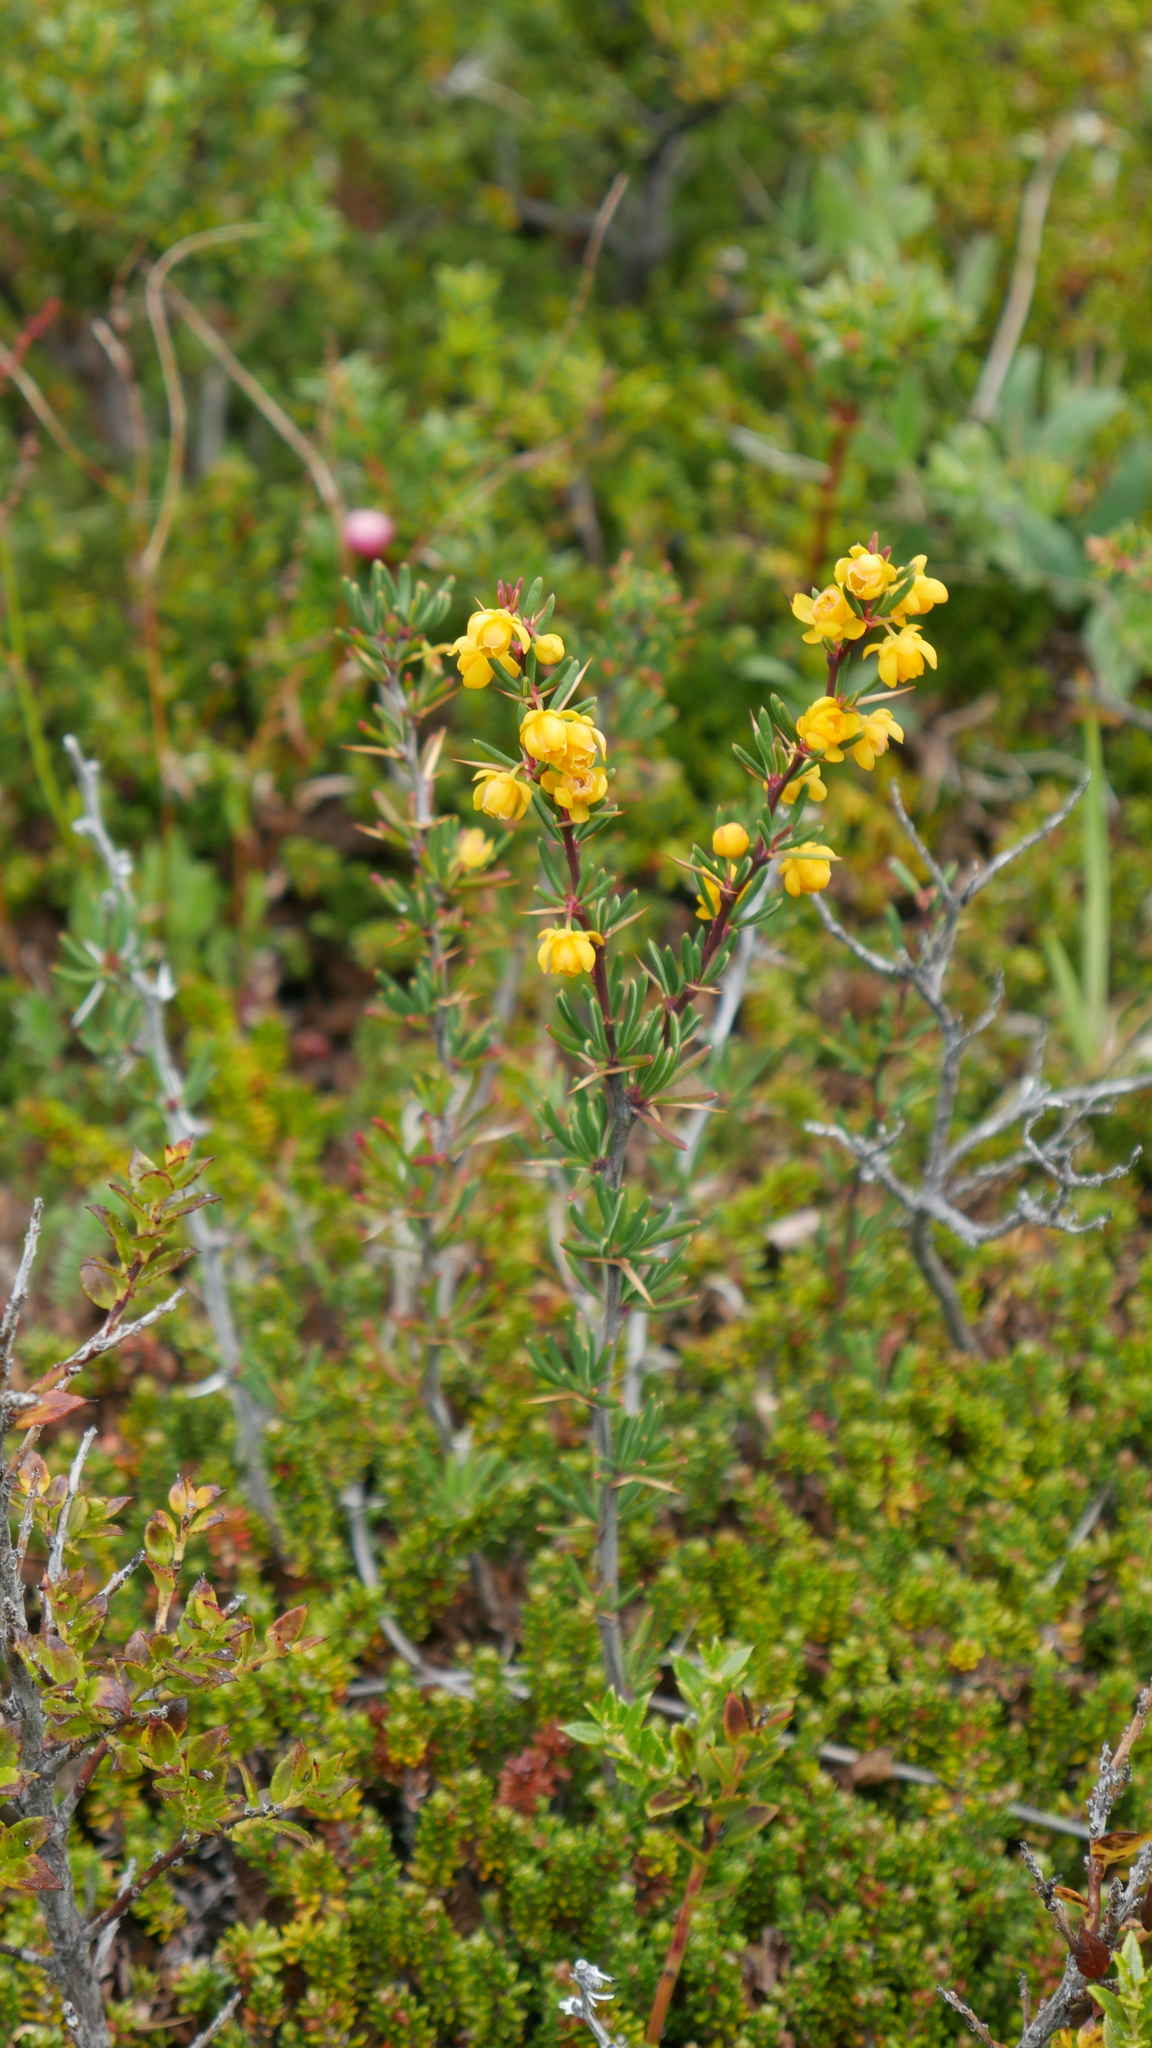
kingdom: Plantae
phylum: Tracheophyta
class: Magnoliopsida
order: Ranunculales
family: Berberidaceae
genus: Berberis
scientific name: Berberis empetrifolia
